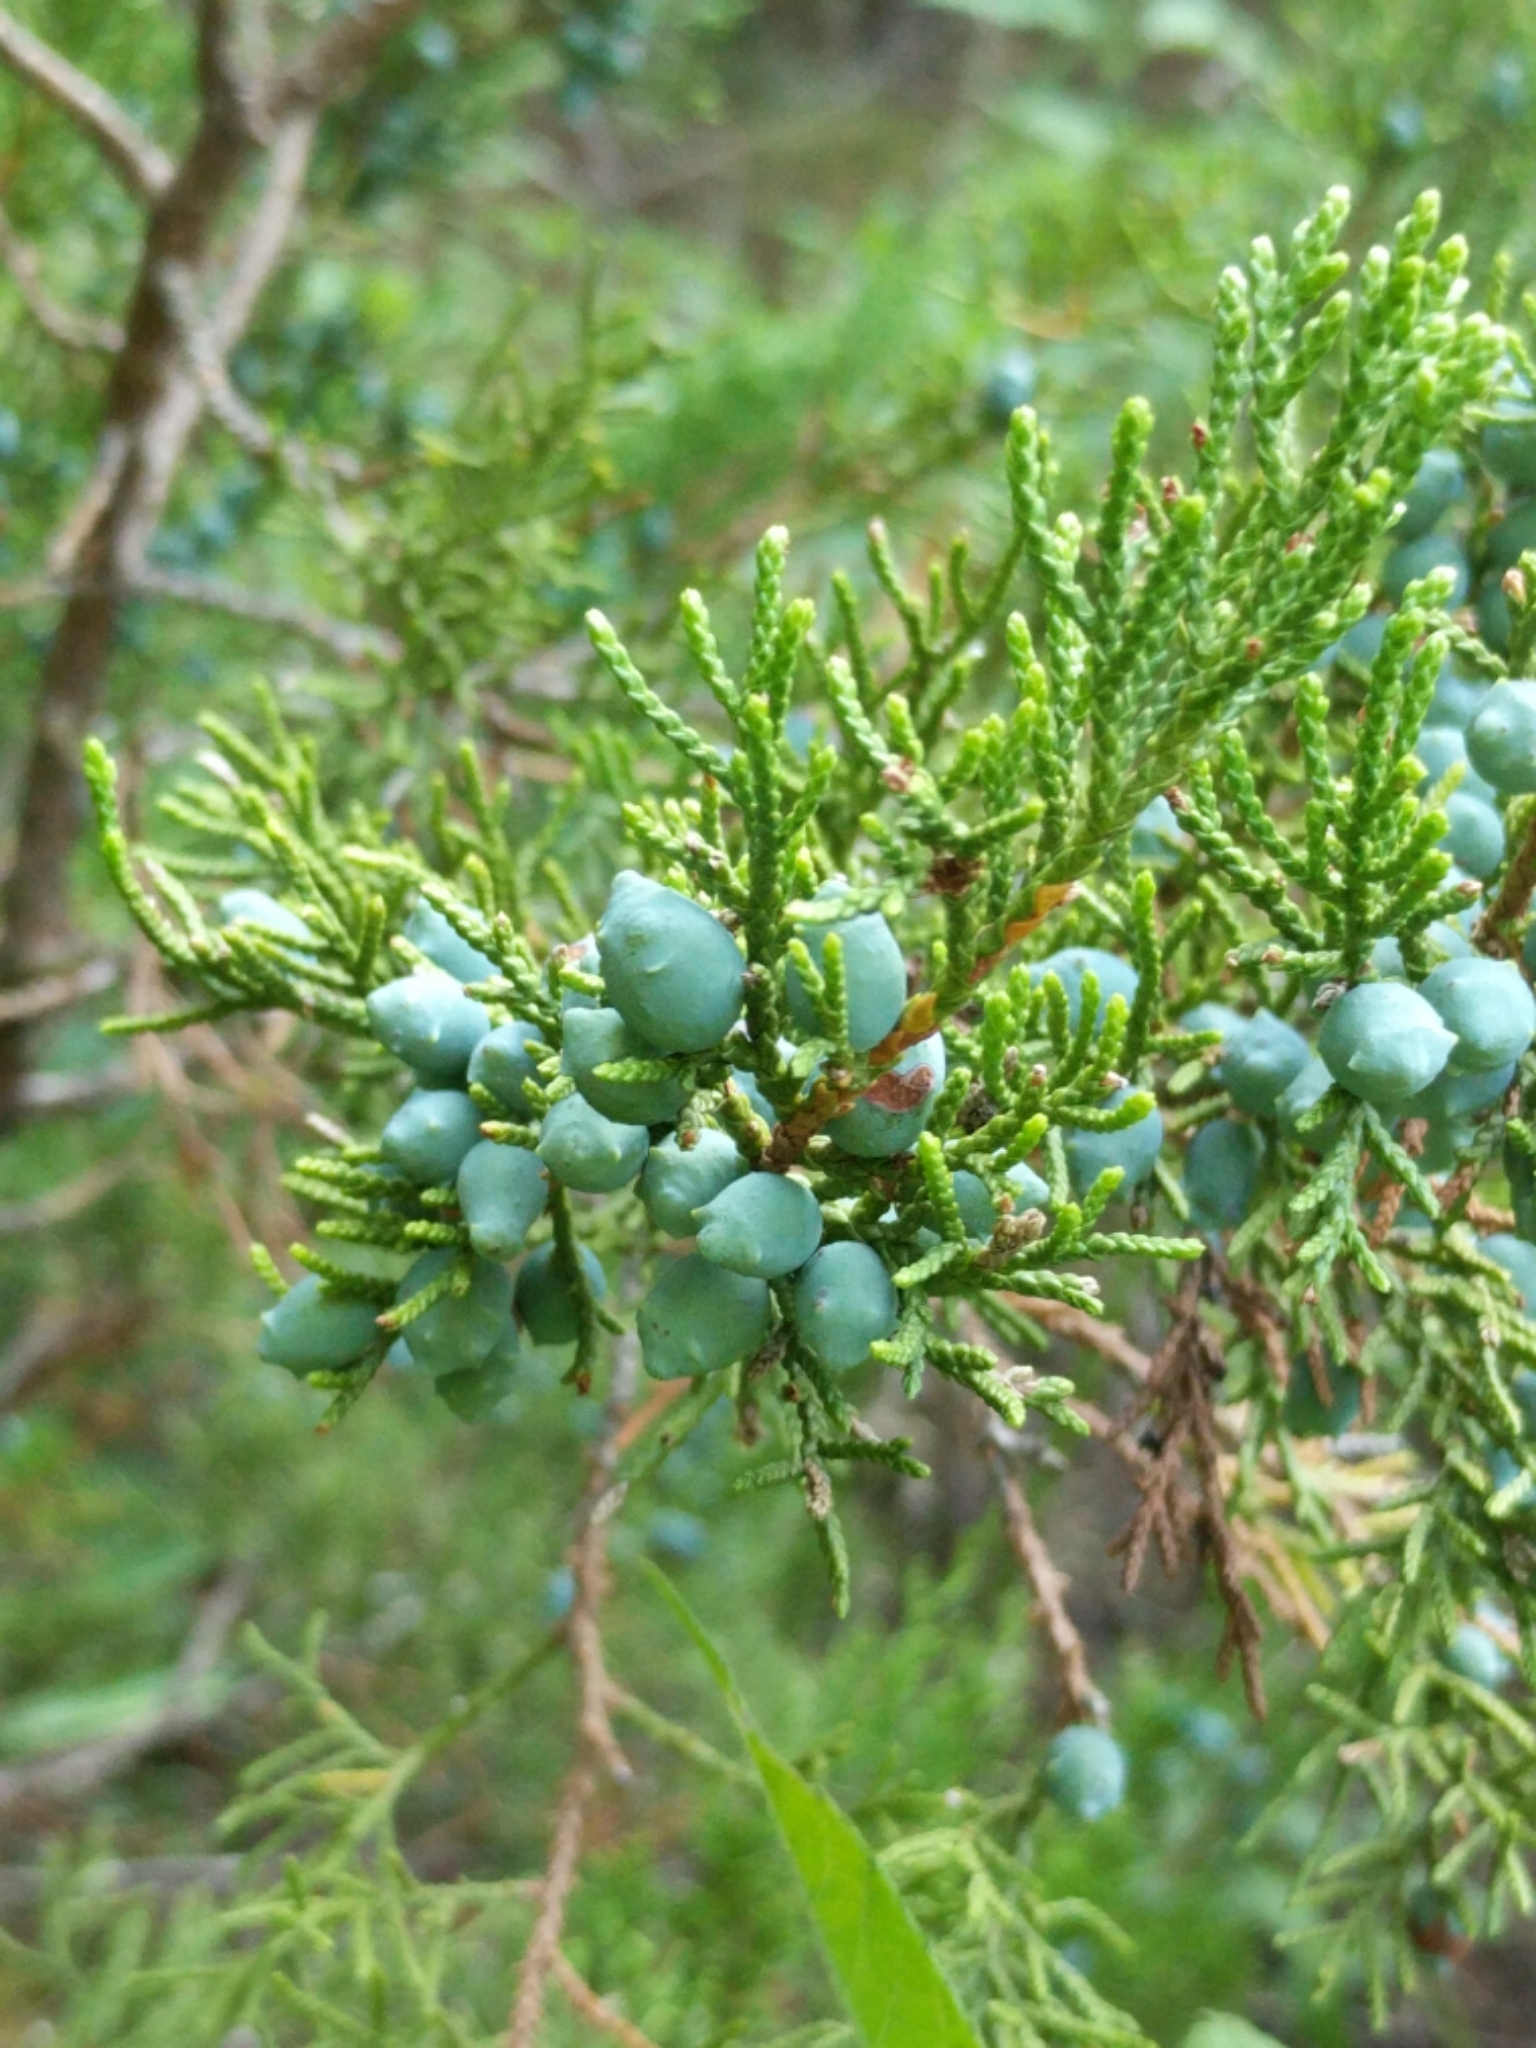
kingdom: Plantae
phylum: Tracheophyta
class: Pinopsida
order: Pinales
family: Cupressaceae
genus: Juniperus
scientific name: Juniperus ashei
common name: Mexican juniper
